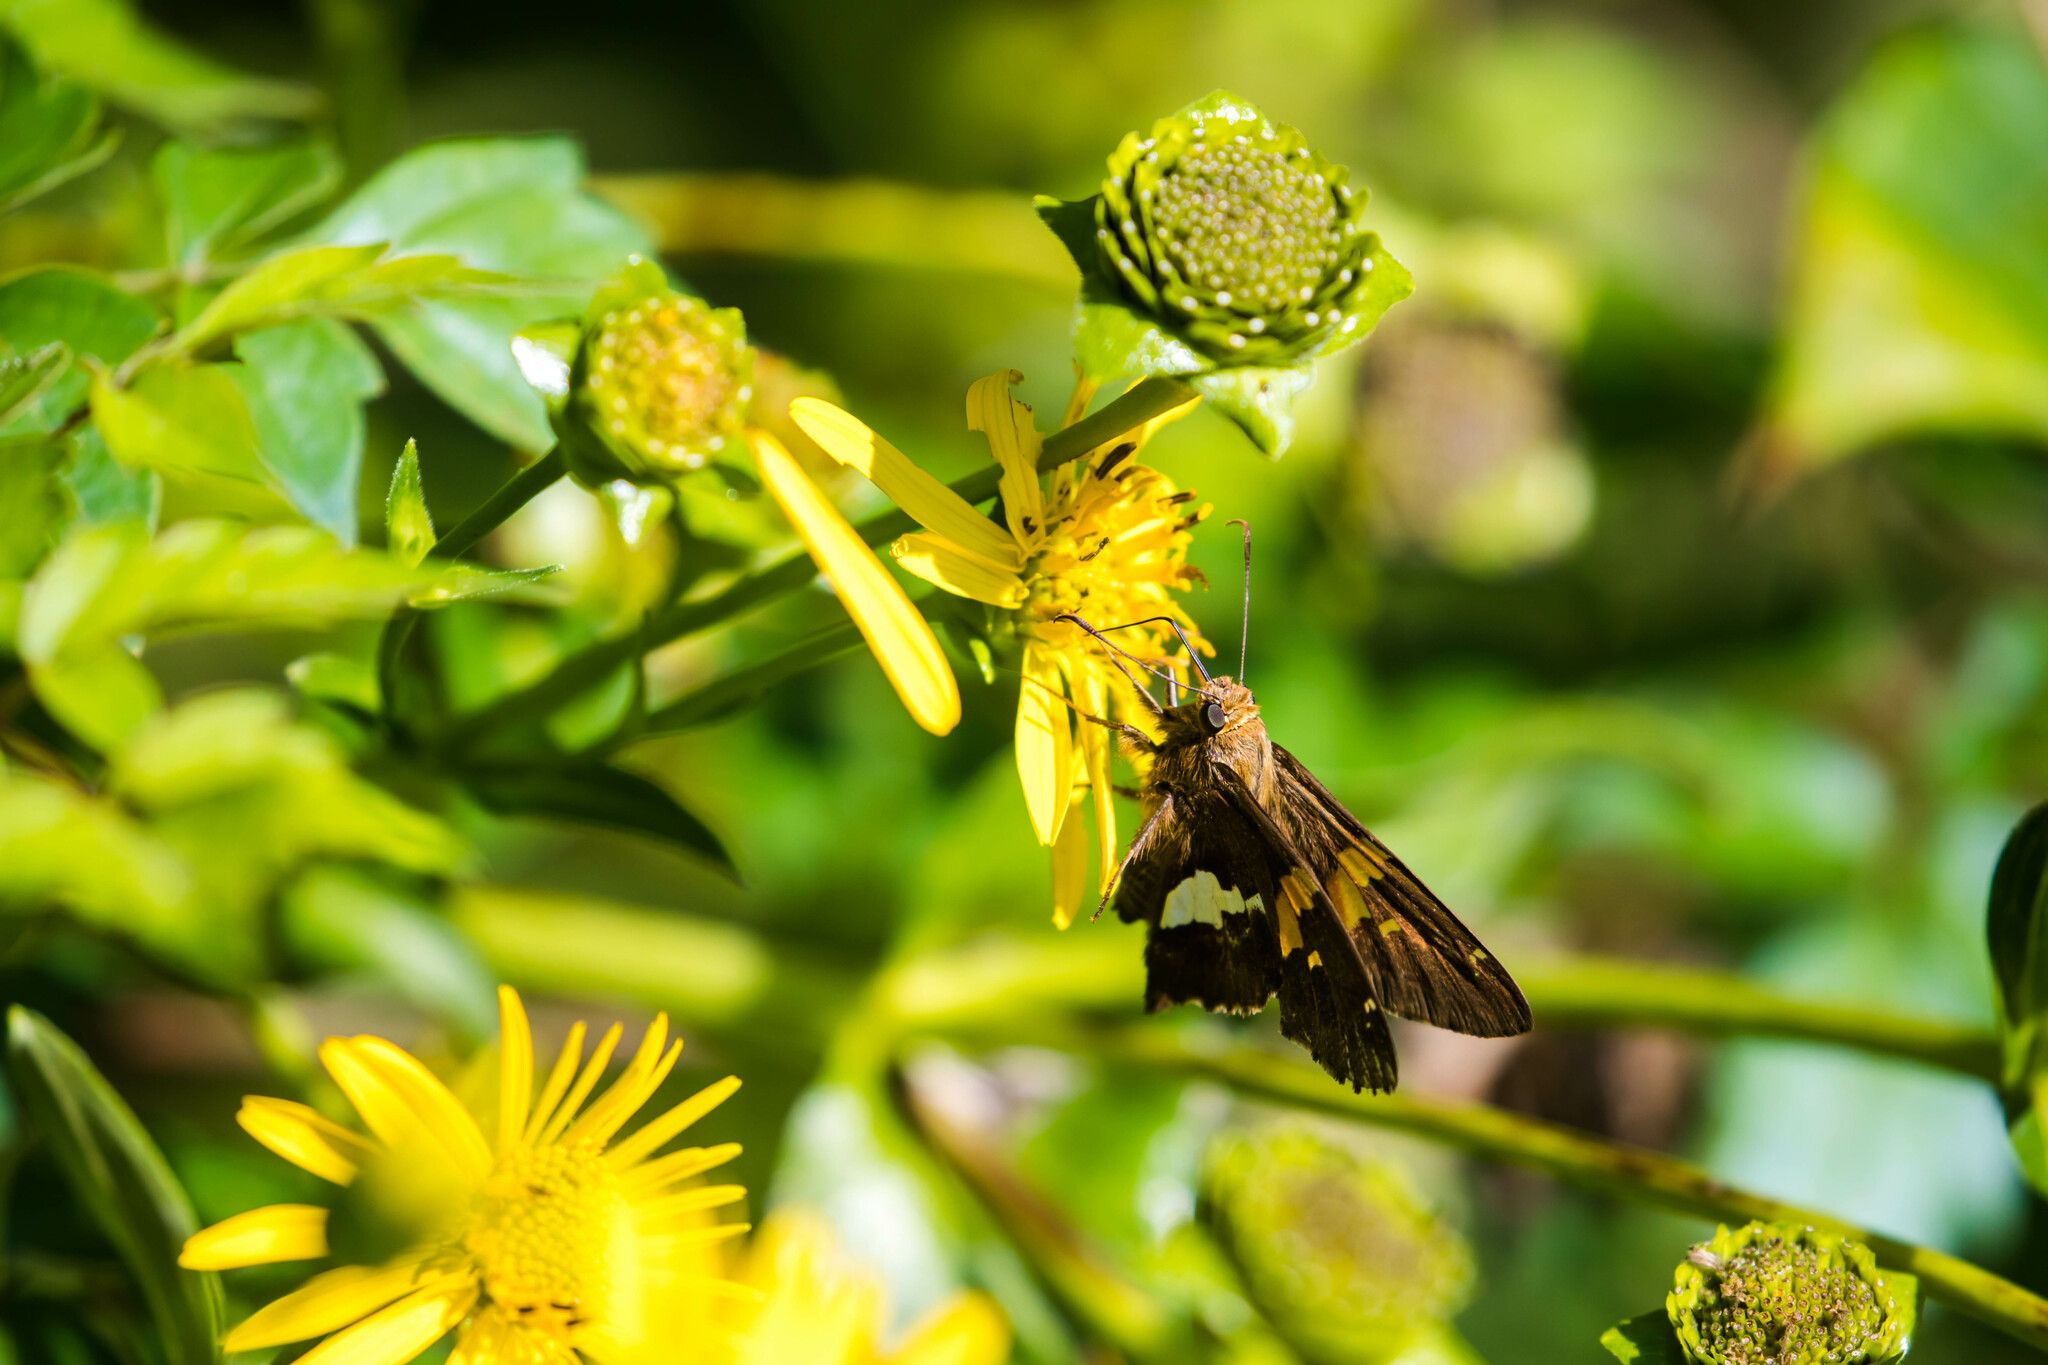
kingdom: Animalia
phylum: Arthropoda
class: Insecta
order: Lepidoptera
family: Hesperiidae
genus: Epargyreus
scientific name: Epargyreus clarus
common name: Silver-spotted skipper
